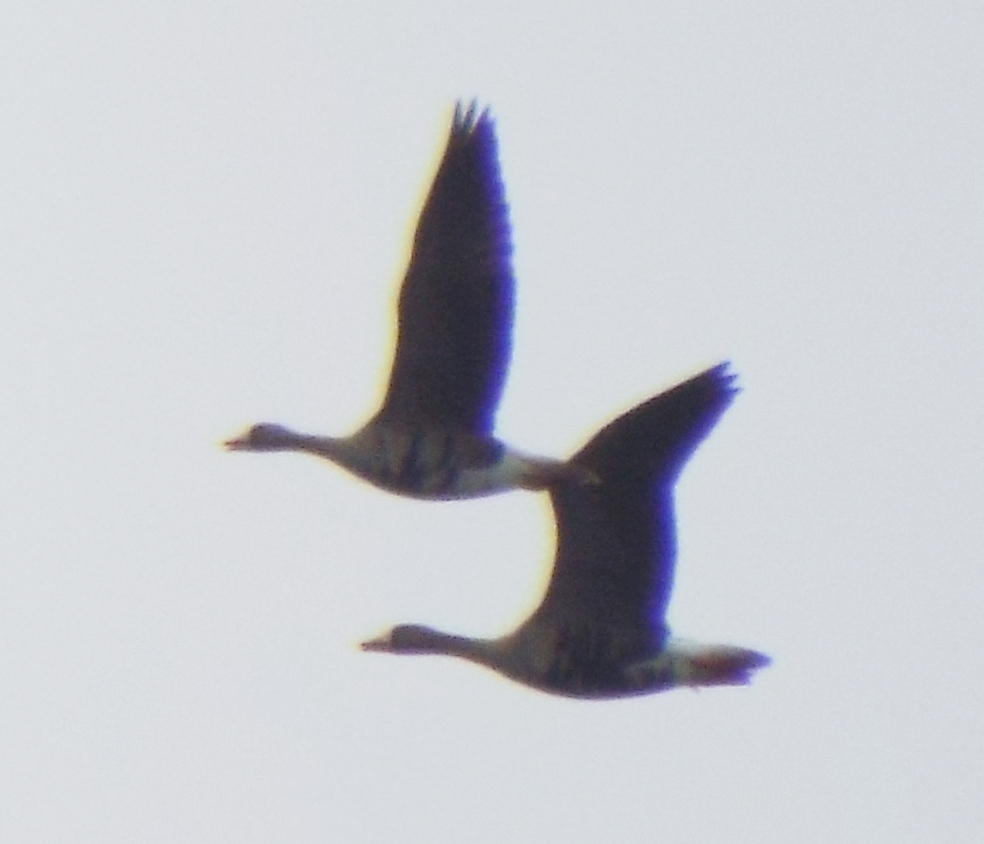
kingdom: Animalia
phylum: Chordata
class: Aves
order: Anseriformes
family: Anatidae
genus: Anser
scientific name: Anser albifrons
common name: Greater white-fronted goose
